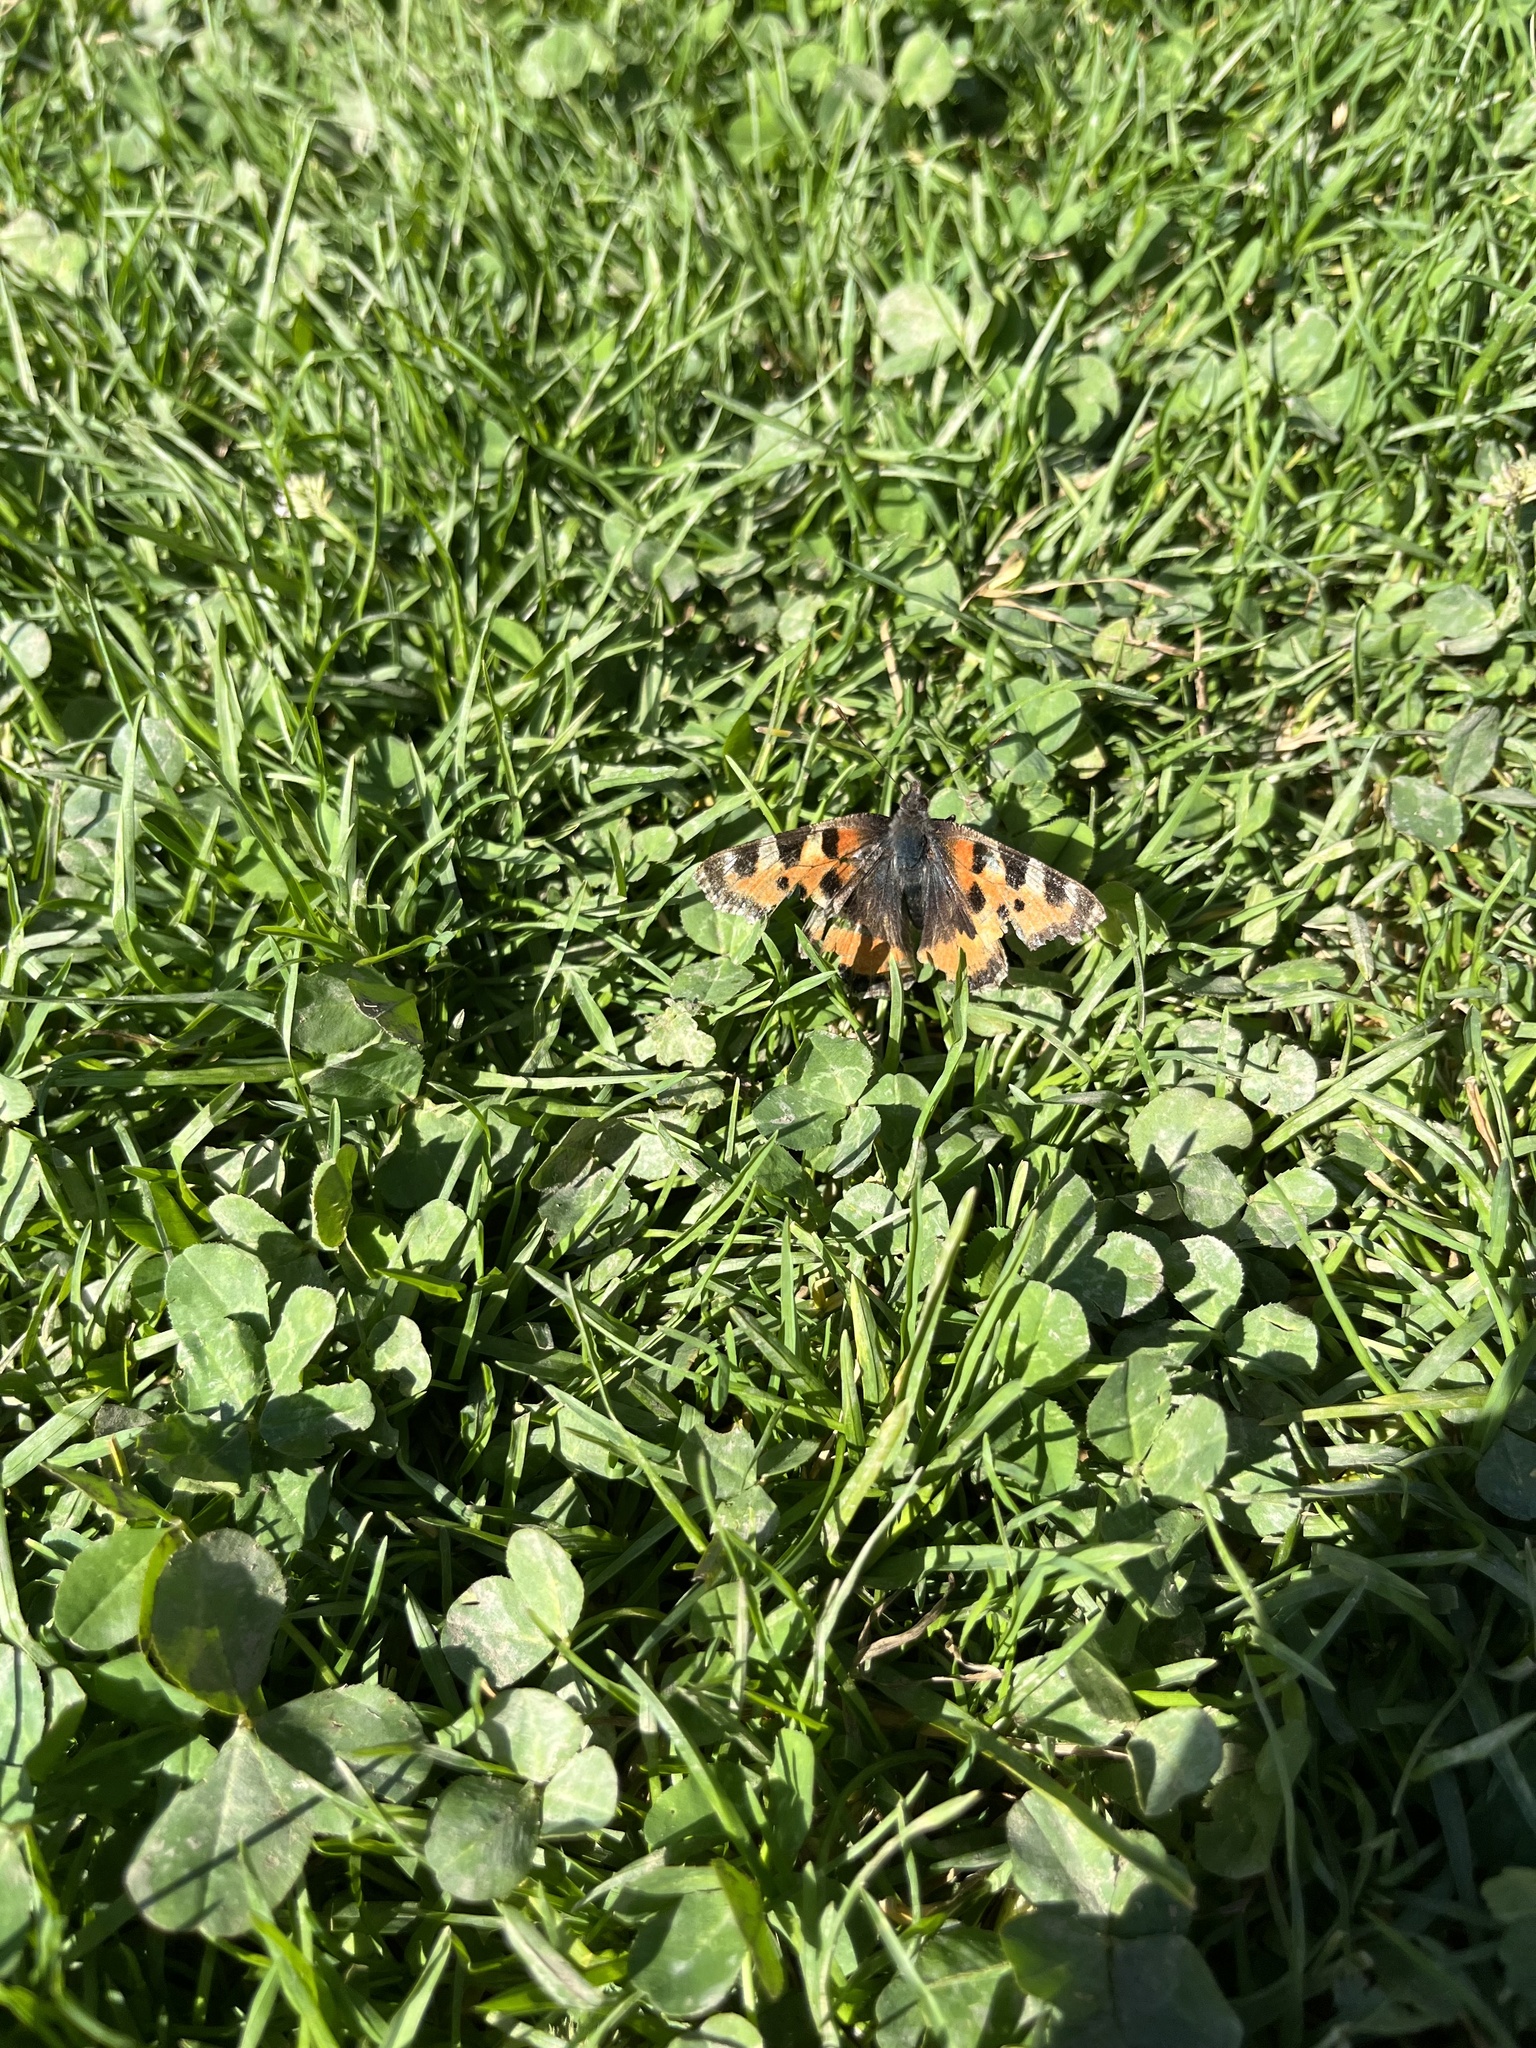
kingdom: Animalia
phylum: Arthropoda
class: Insecta
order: Lepidoptera
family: Nymphalidae
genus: Aglais
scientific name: Aglais urticae
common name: Small tortoiseshell
